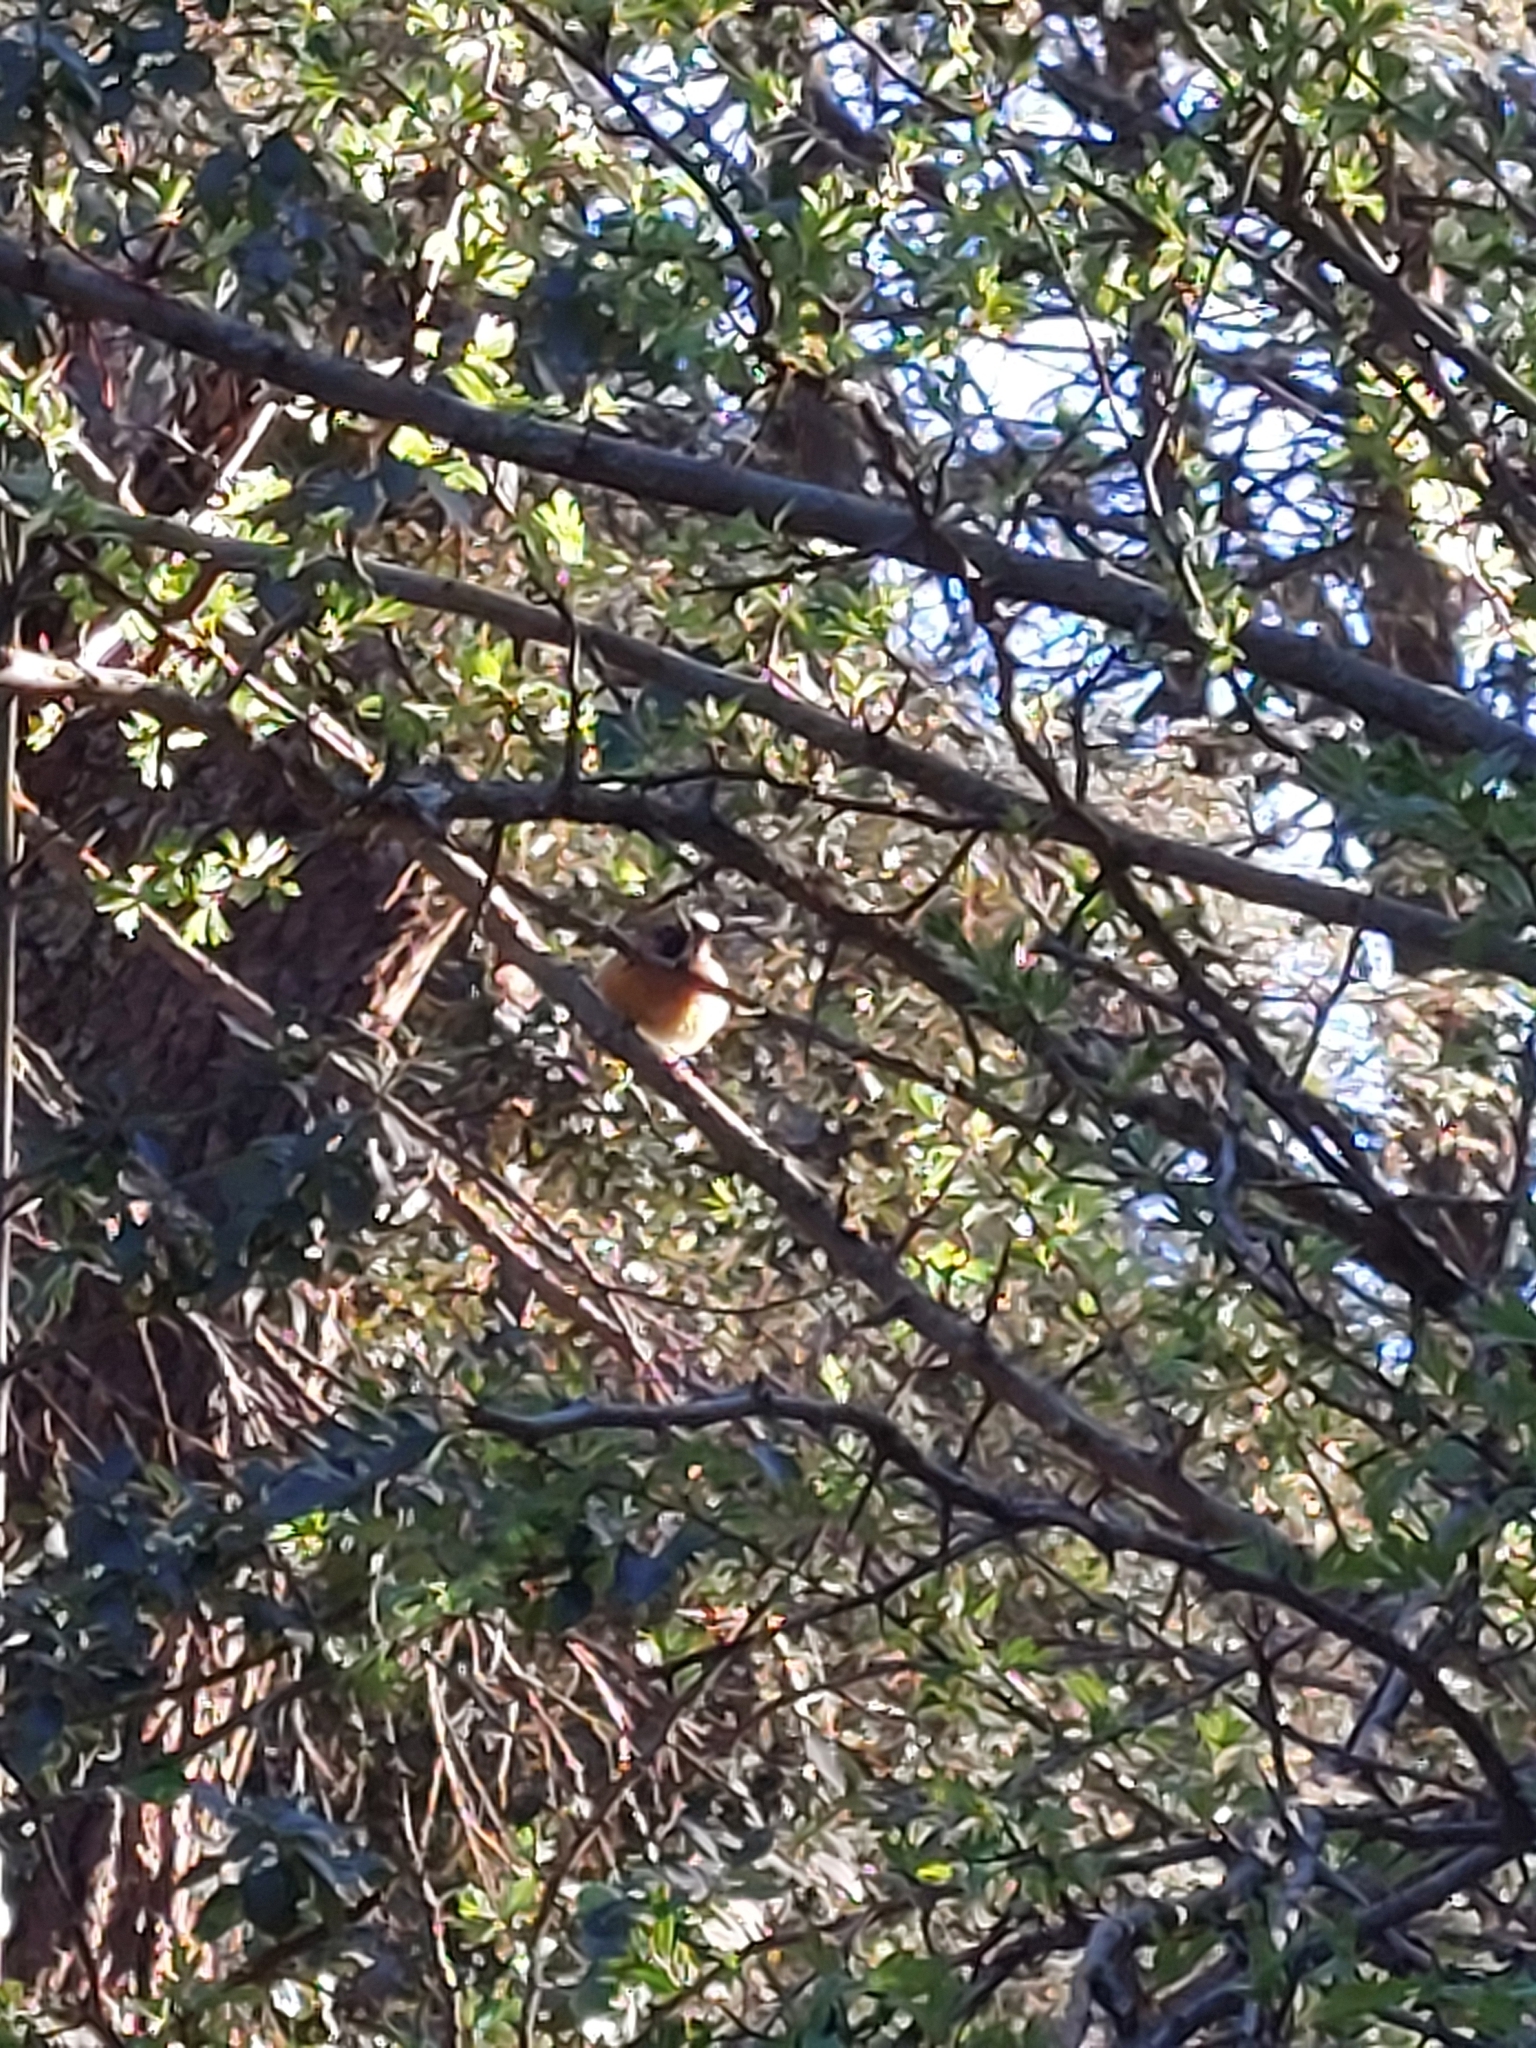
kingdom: Animalia
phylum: Chordata
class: Aves
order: Passeriformes
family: Muscicapidae
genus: Phoenicurus
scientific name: Phoenicurus phoenicurus
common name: Common redstart
